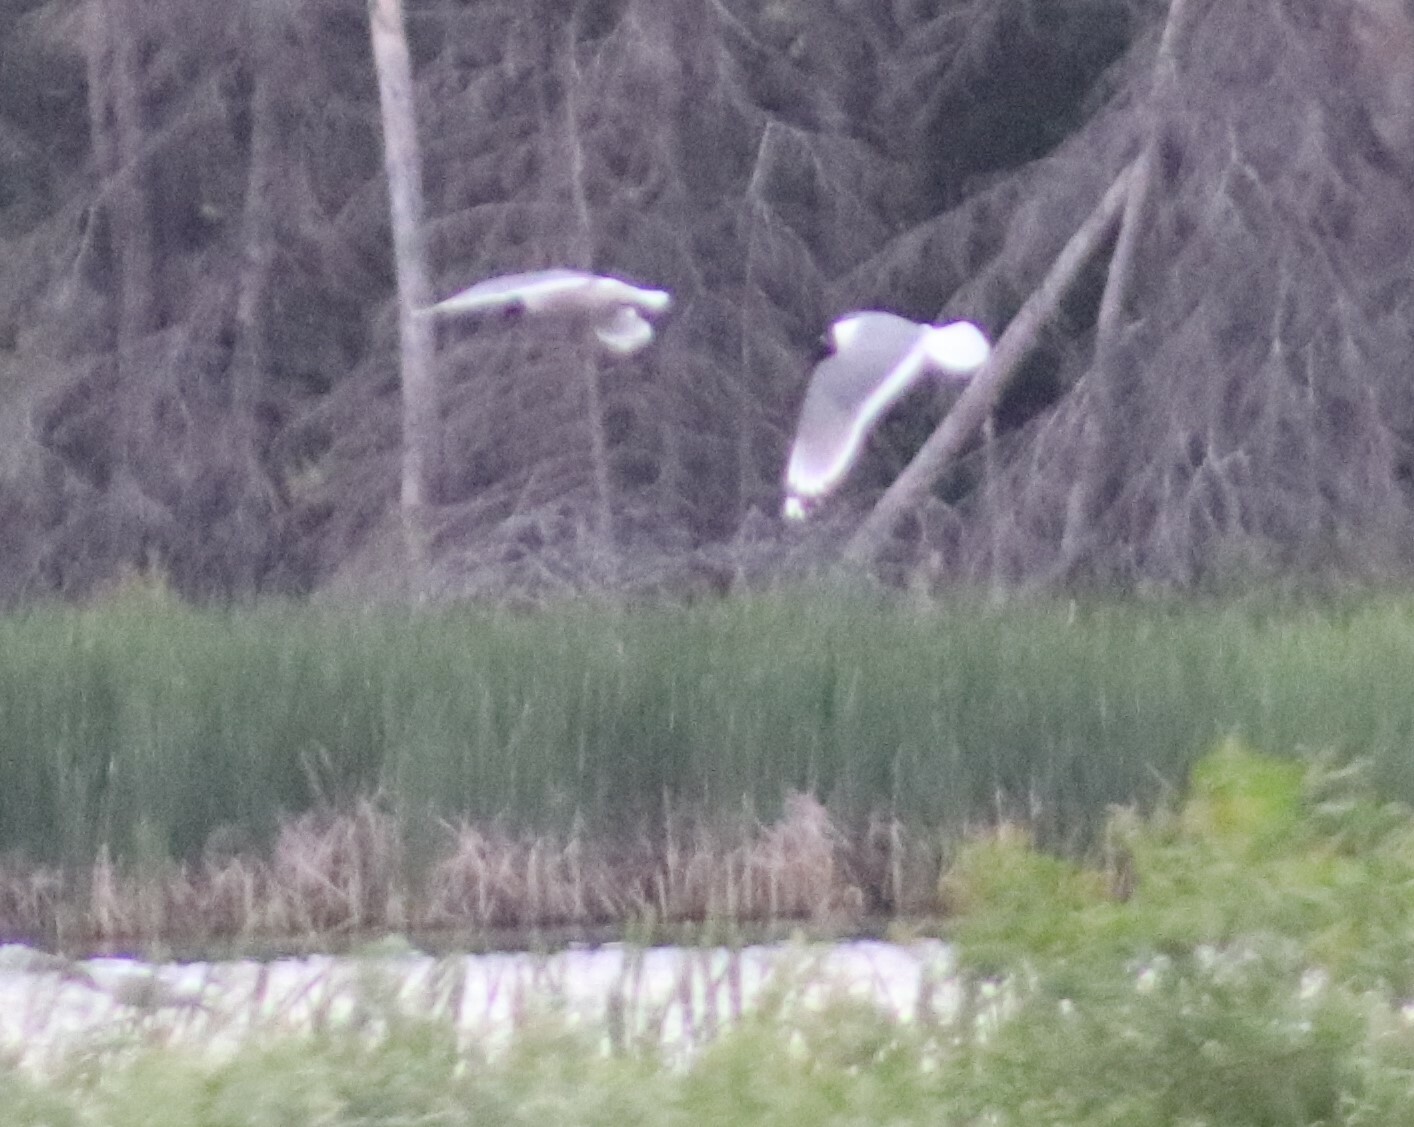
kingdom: Animalia
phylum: Chordata
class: Aves
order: Charadriiformes
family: Laridae
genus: Leucophaeus
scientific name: Leucophaeus pipixcan
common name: Franklin's gull
